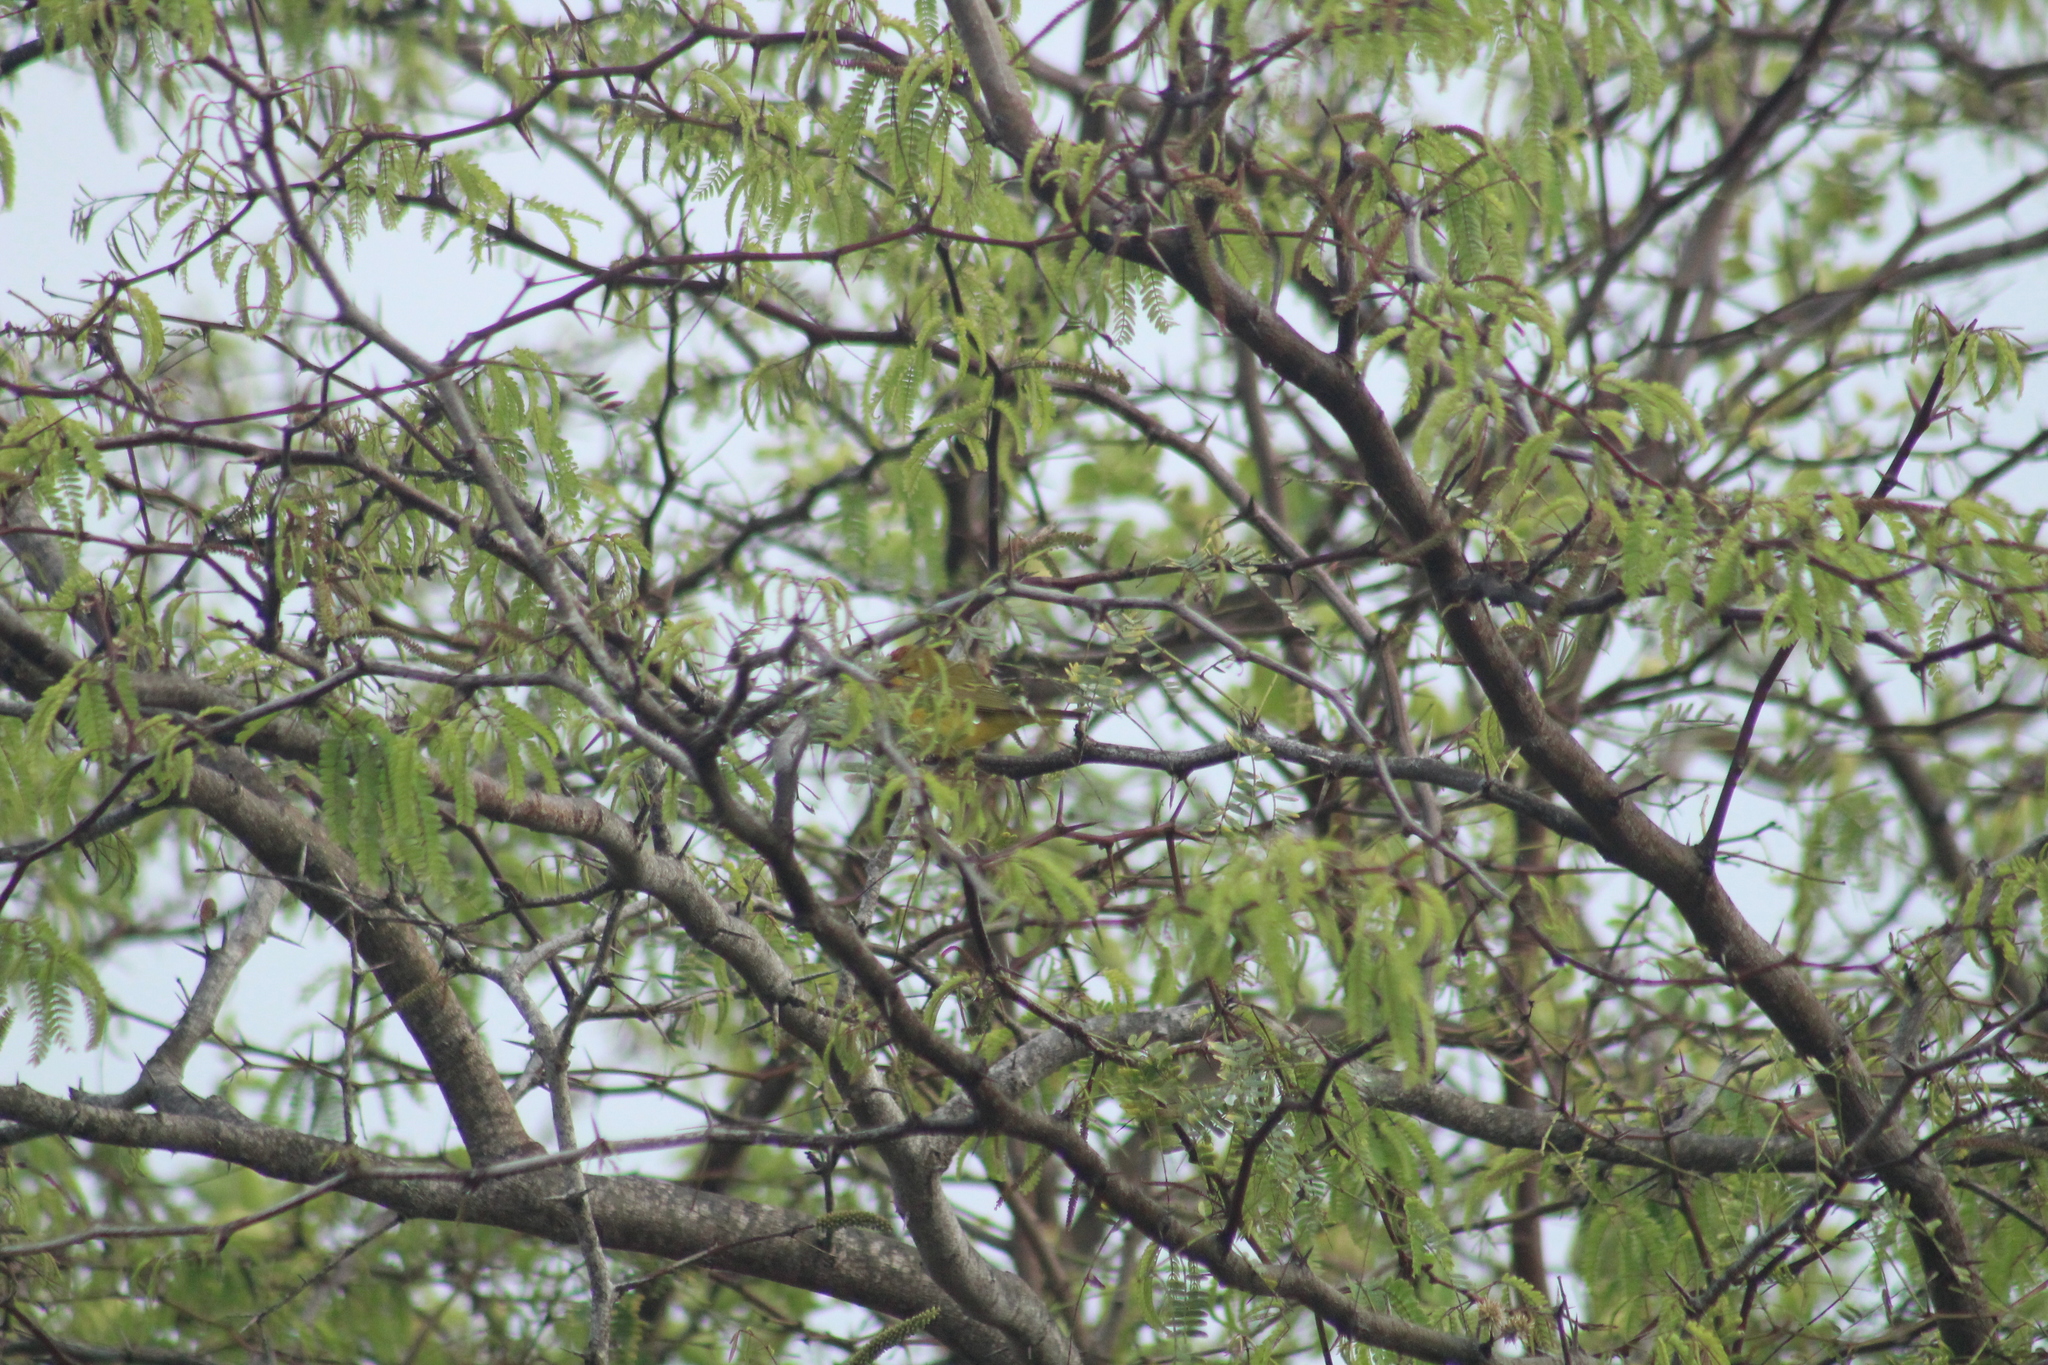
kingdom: Animalia
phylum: Chordata
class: Aves
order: Passeriformes
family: Parulidae
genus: Setophaga
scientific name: Setophaga petechia
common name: Yellow warbler
